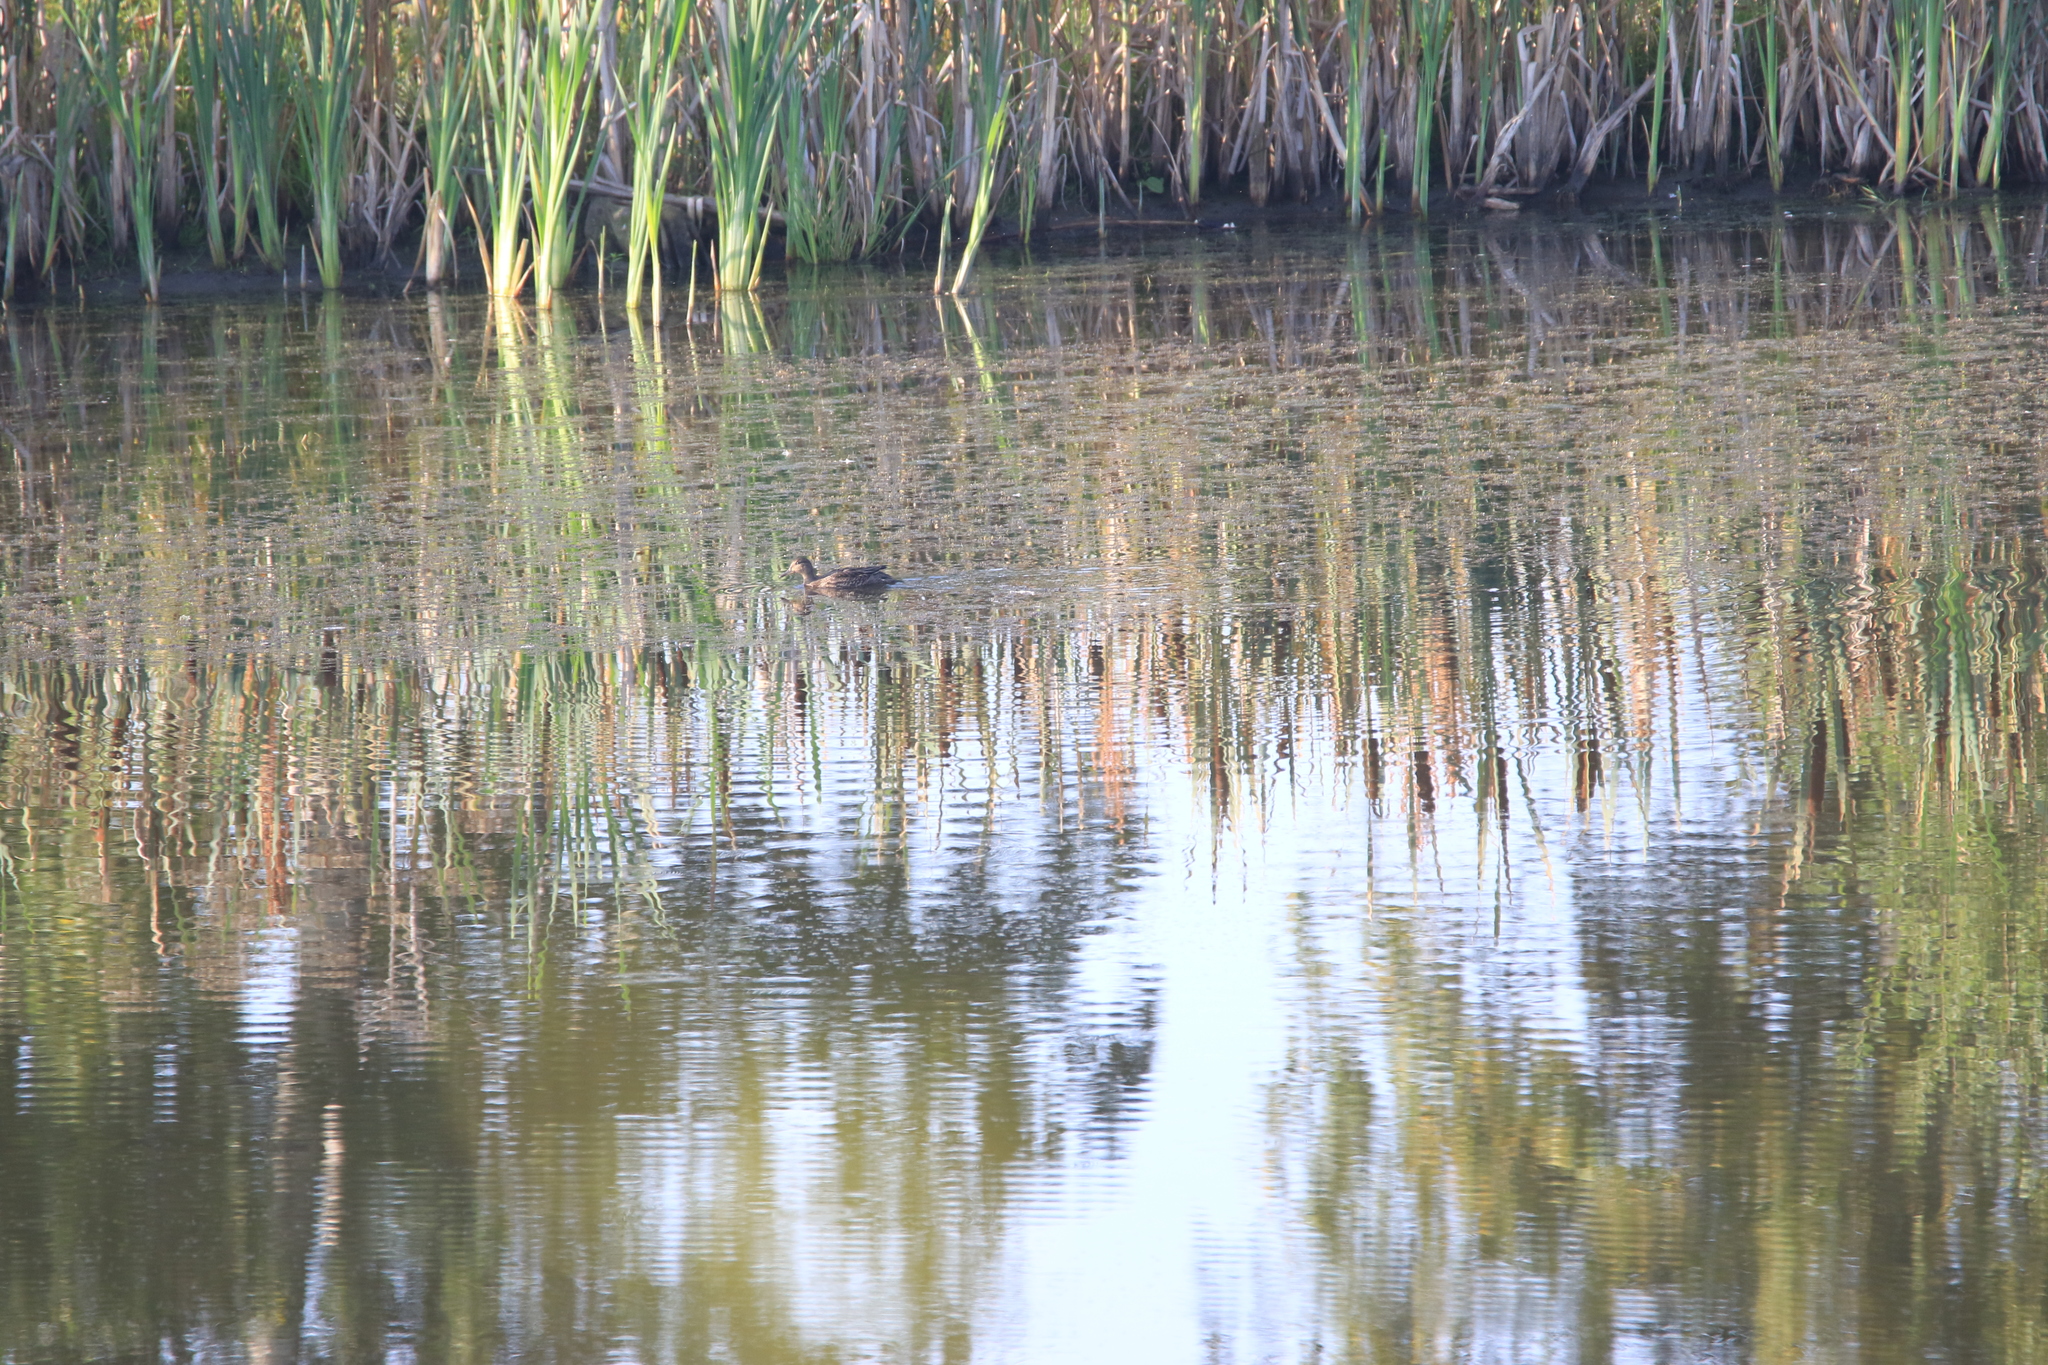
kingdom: Animalia
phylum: Chordata
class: Aves
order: Anseriformes
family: Anatidae
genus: Anas
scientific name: Anas crecca
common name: Eurasian teal
